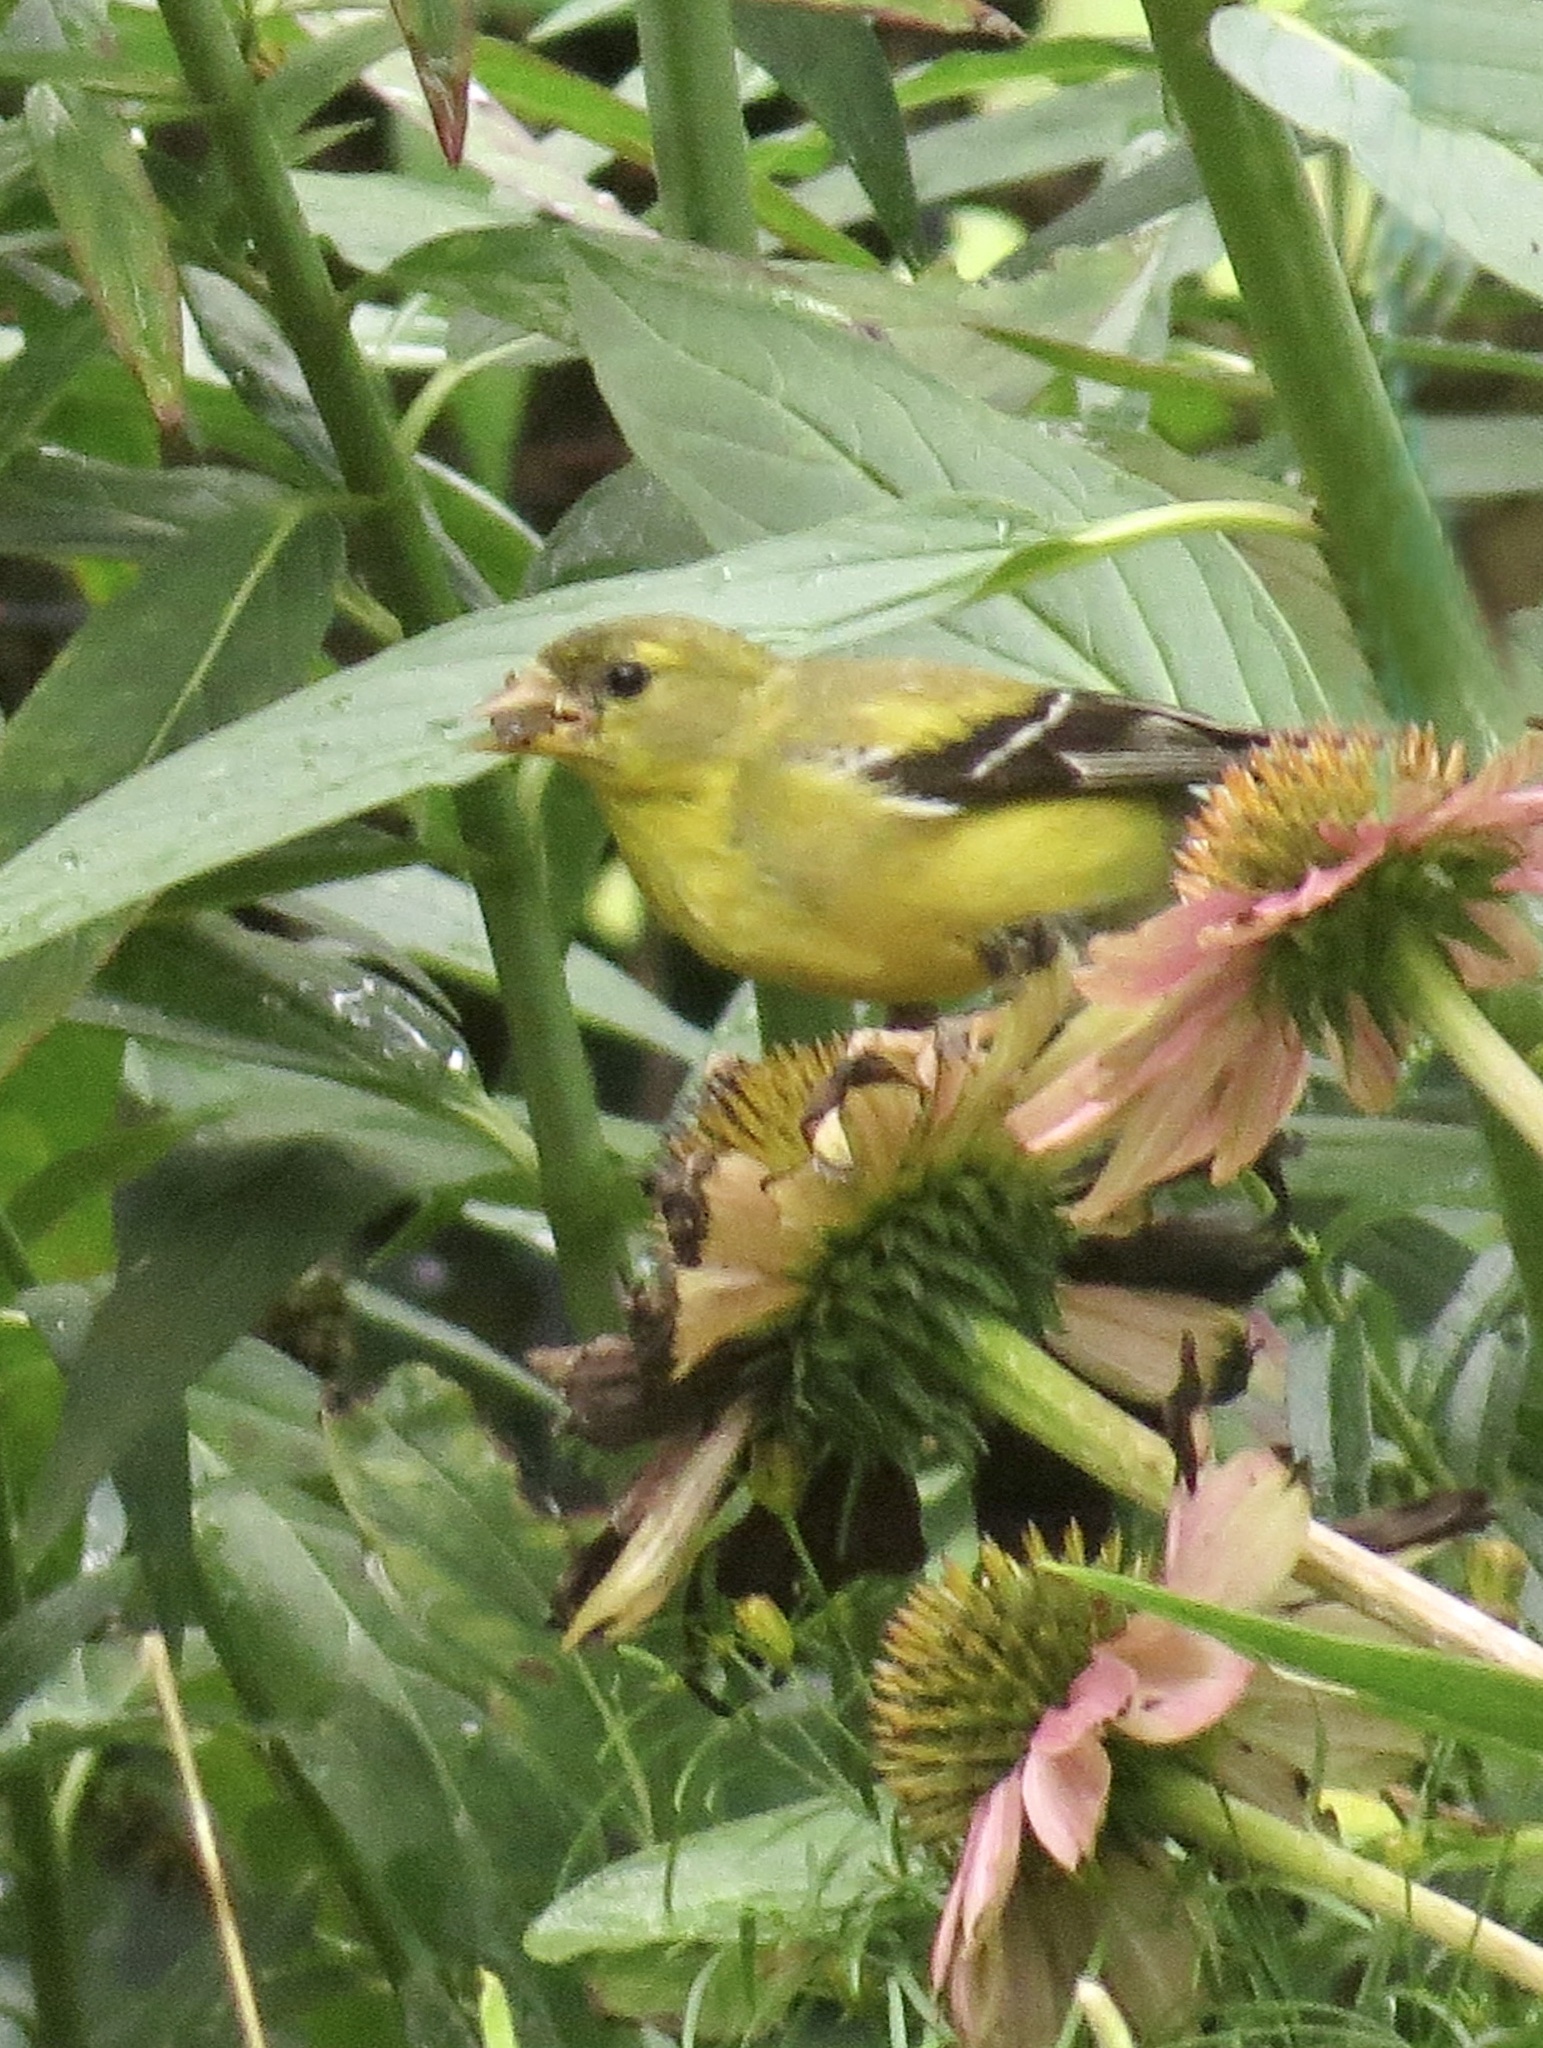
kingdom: Animalia
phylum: Chordata
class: Aves
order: Passeriformes
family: Fringillidae
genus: Spinus
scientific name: Spinus tristis
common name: American goldfinch
